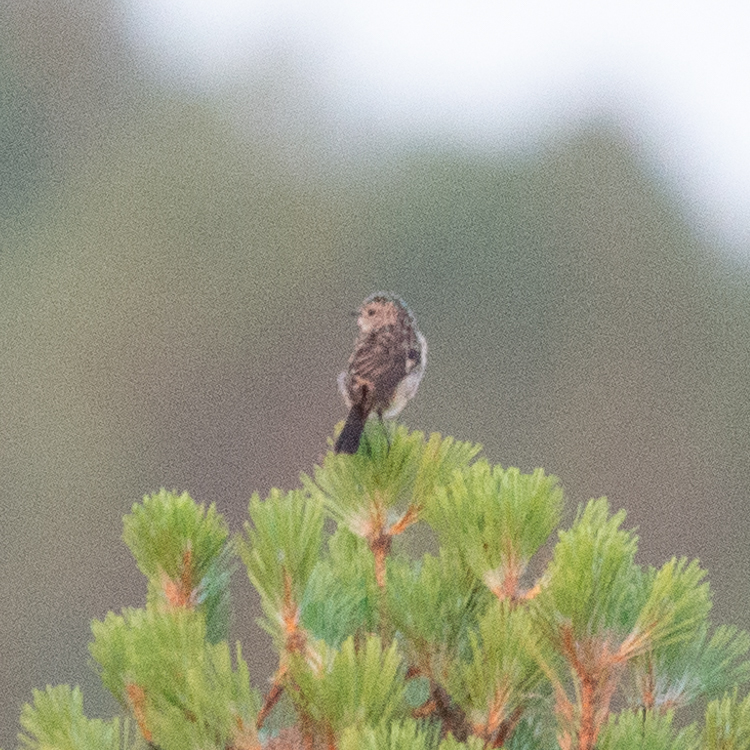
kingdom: Animalia
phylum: Chordata
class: Aves
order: Passeriformes
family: Muscicapidae
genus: Saxicola
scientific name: Saxicola rubicola
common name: European stonechat
